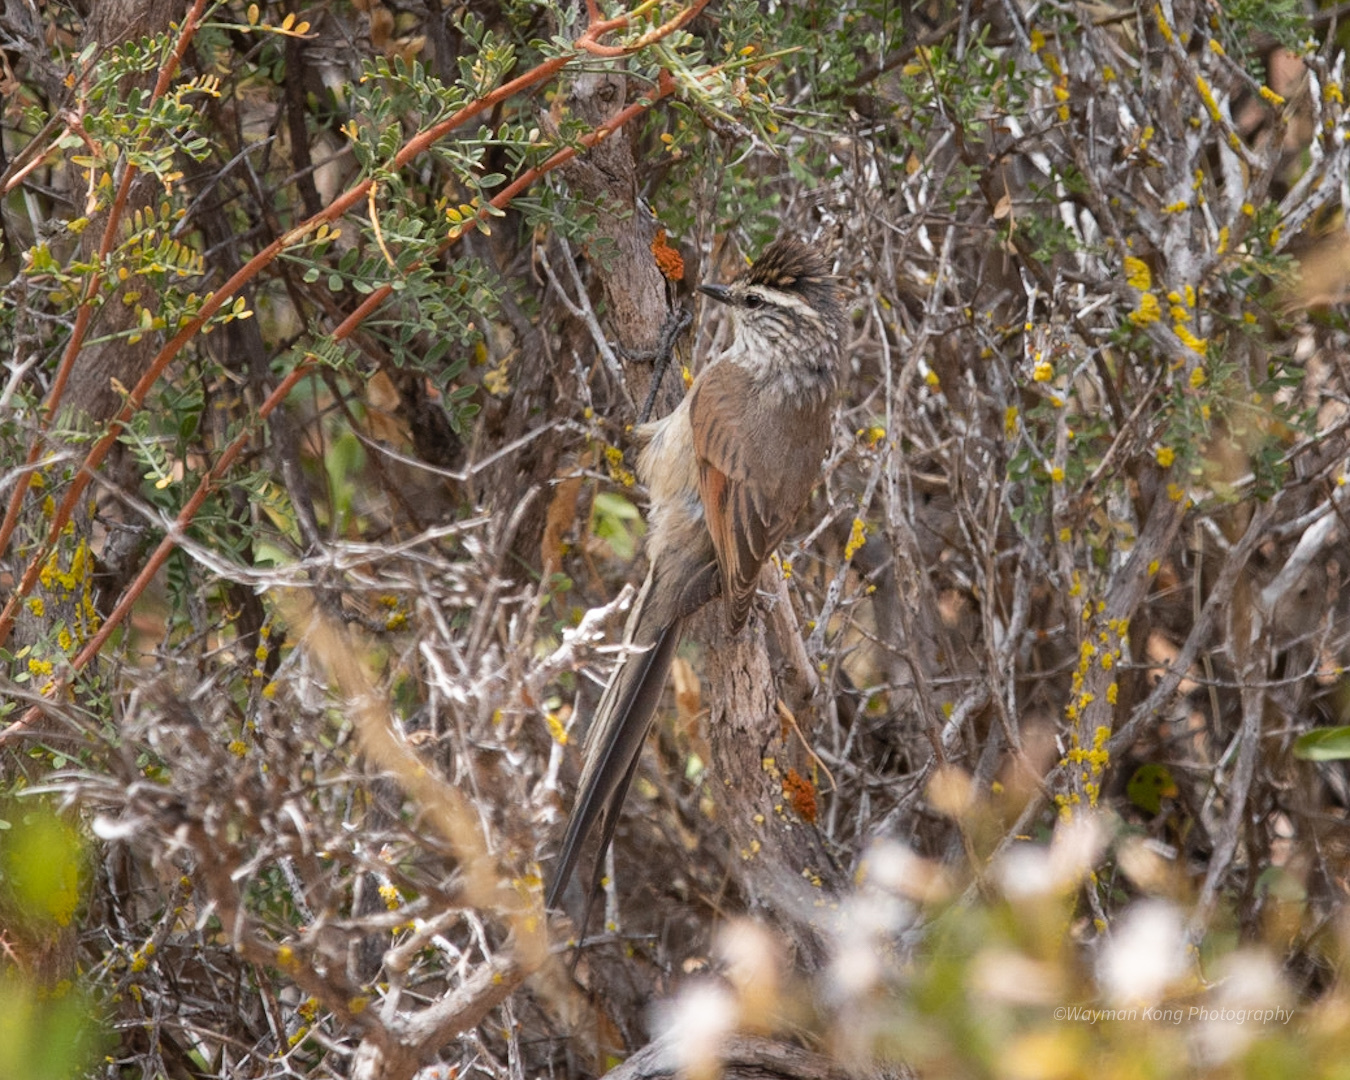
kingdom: Animalia
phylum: Chordata
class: Aves
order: Passeriformes
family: Furnariidae
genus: Leptasthenura
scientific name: Leptasthenura aegithaloides
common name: Plain-mantled tit-spinetail
